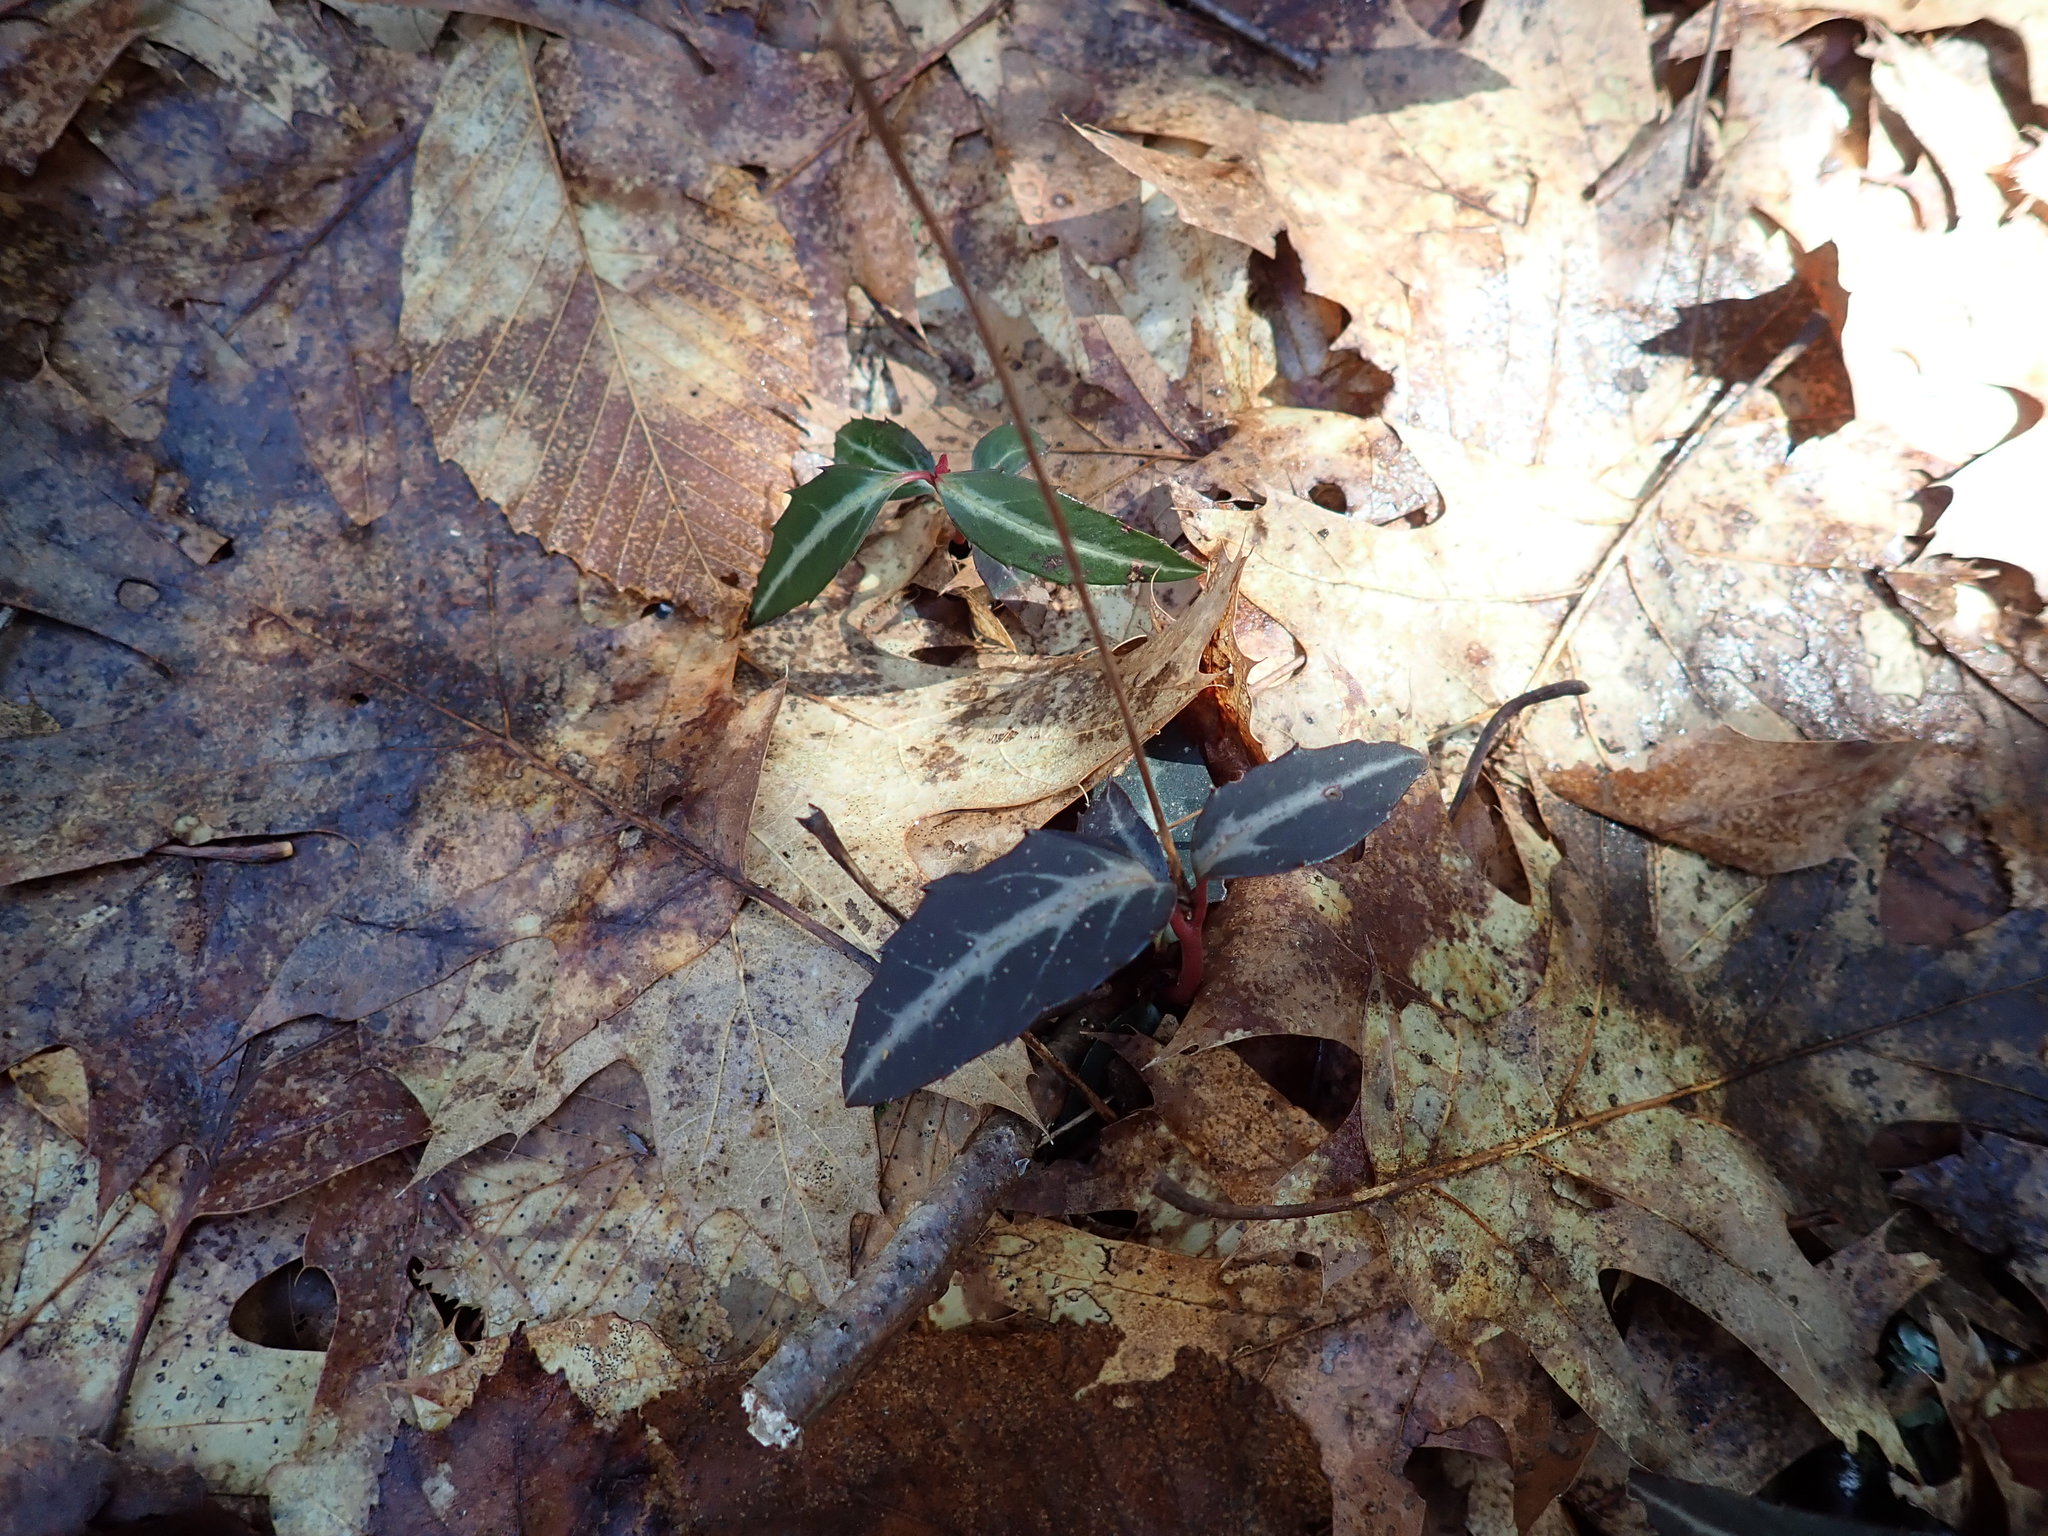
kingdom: Plantae
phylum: Tracheophyta
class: Magnoliopsida
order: Ericales
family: Ericaceae
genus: Chimaphila
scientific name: Chimaphila maculata
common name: Spotted pipsissewa
